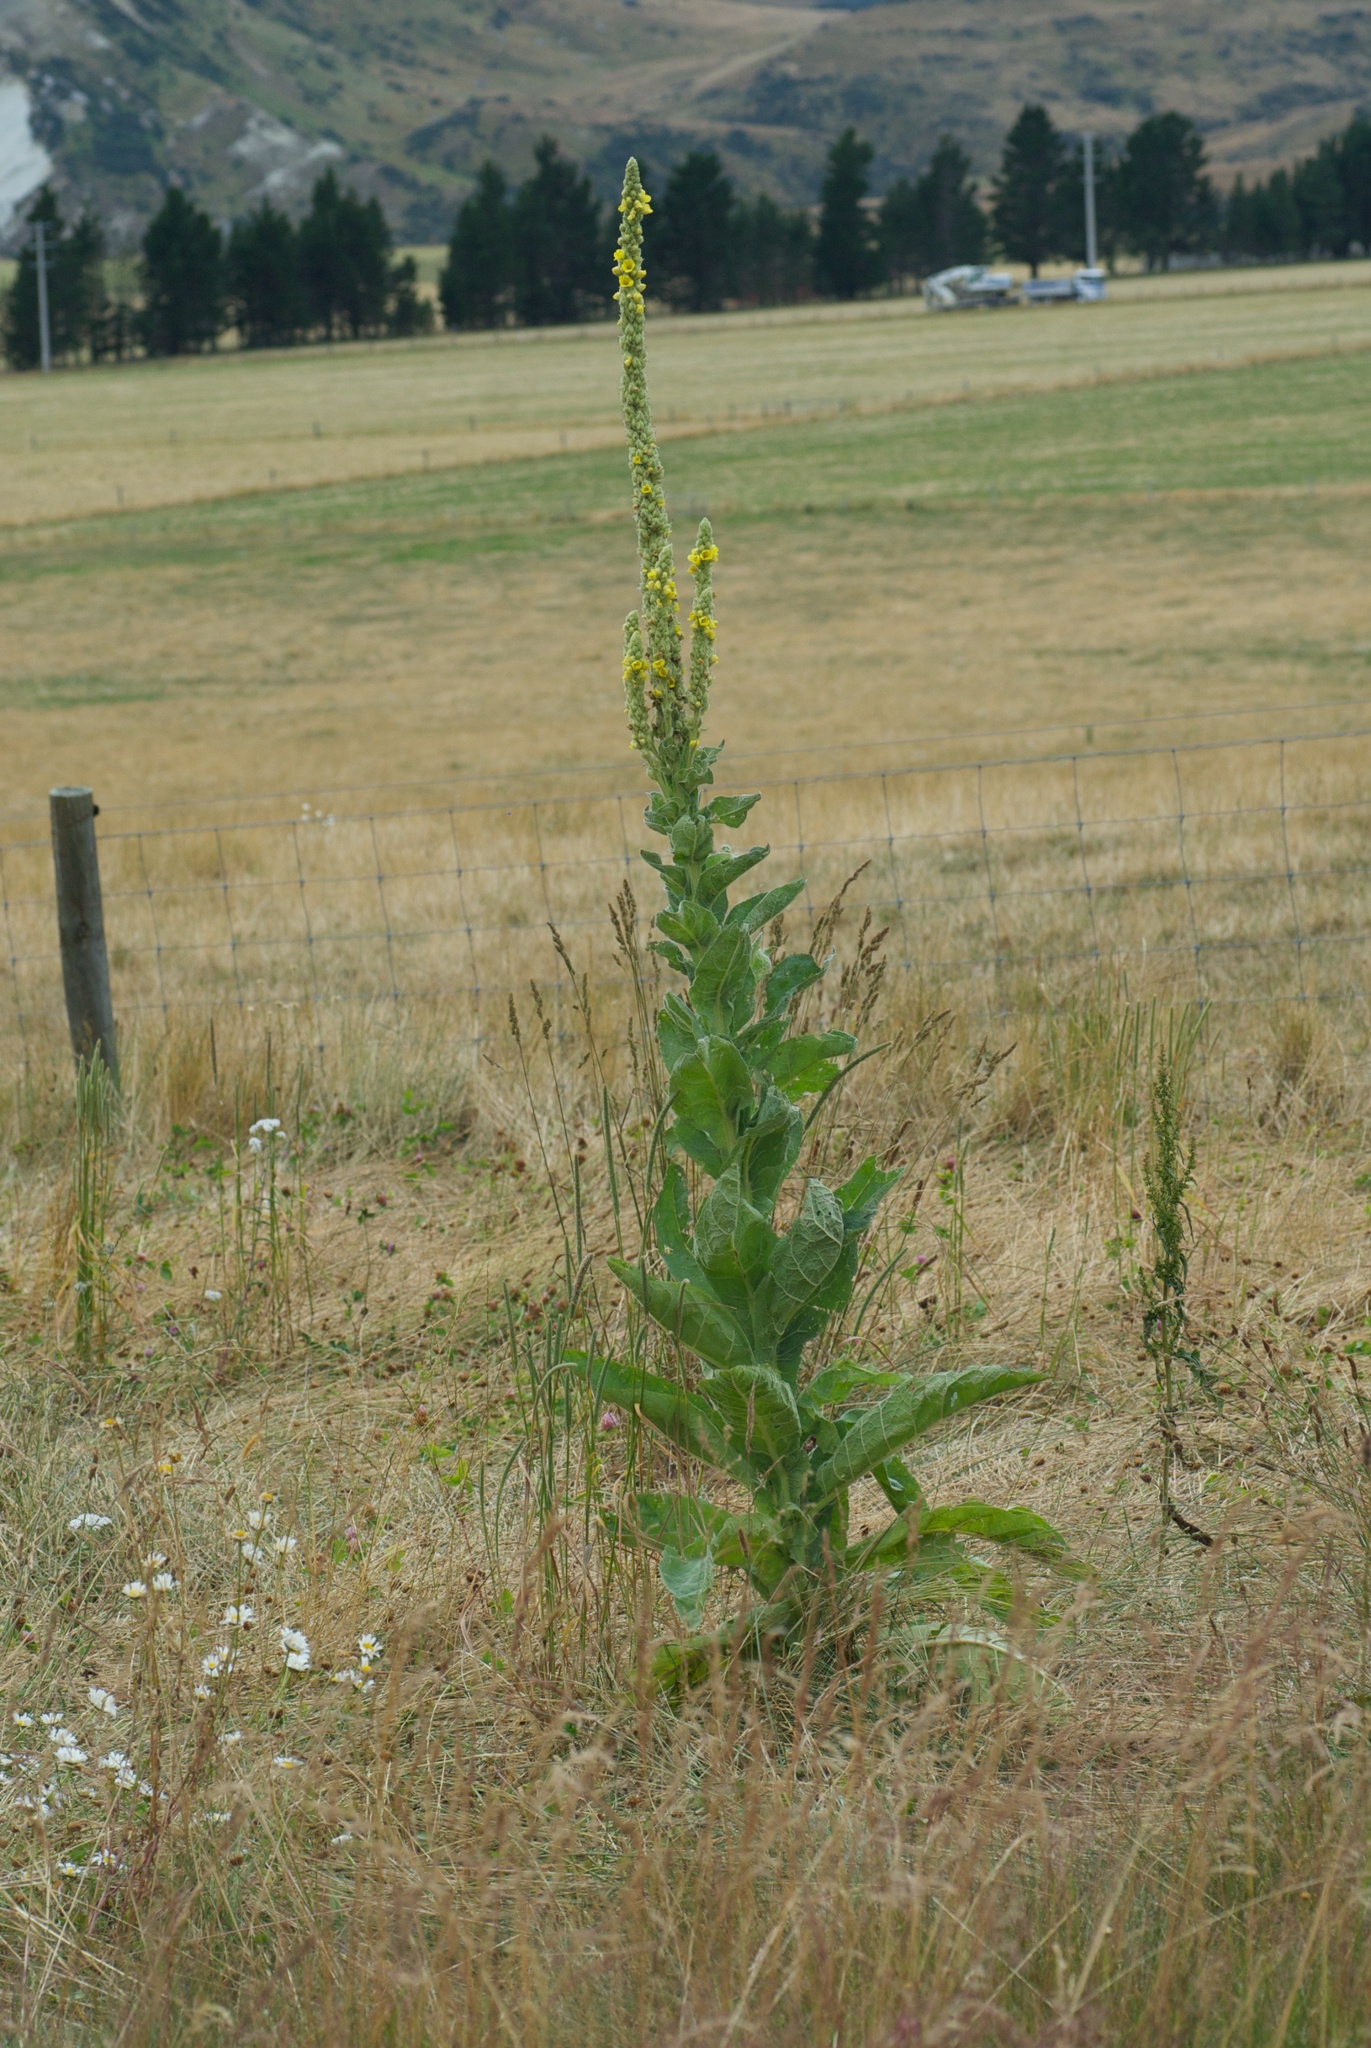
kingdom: Plantae
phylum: Tracheophyta
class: Magnoliopsida
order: Lamiales
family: Scrophulariaceae
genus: Verbascum
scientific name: Verbascum thapsus
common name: Common mullein
